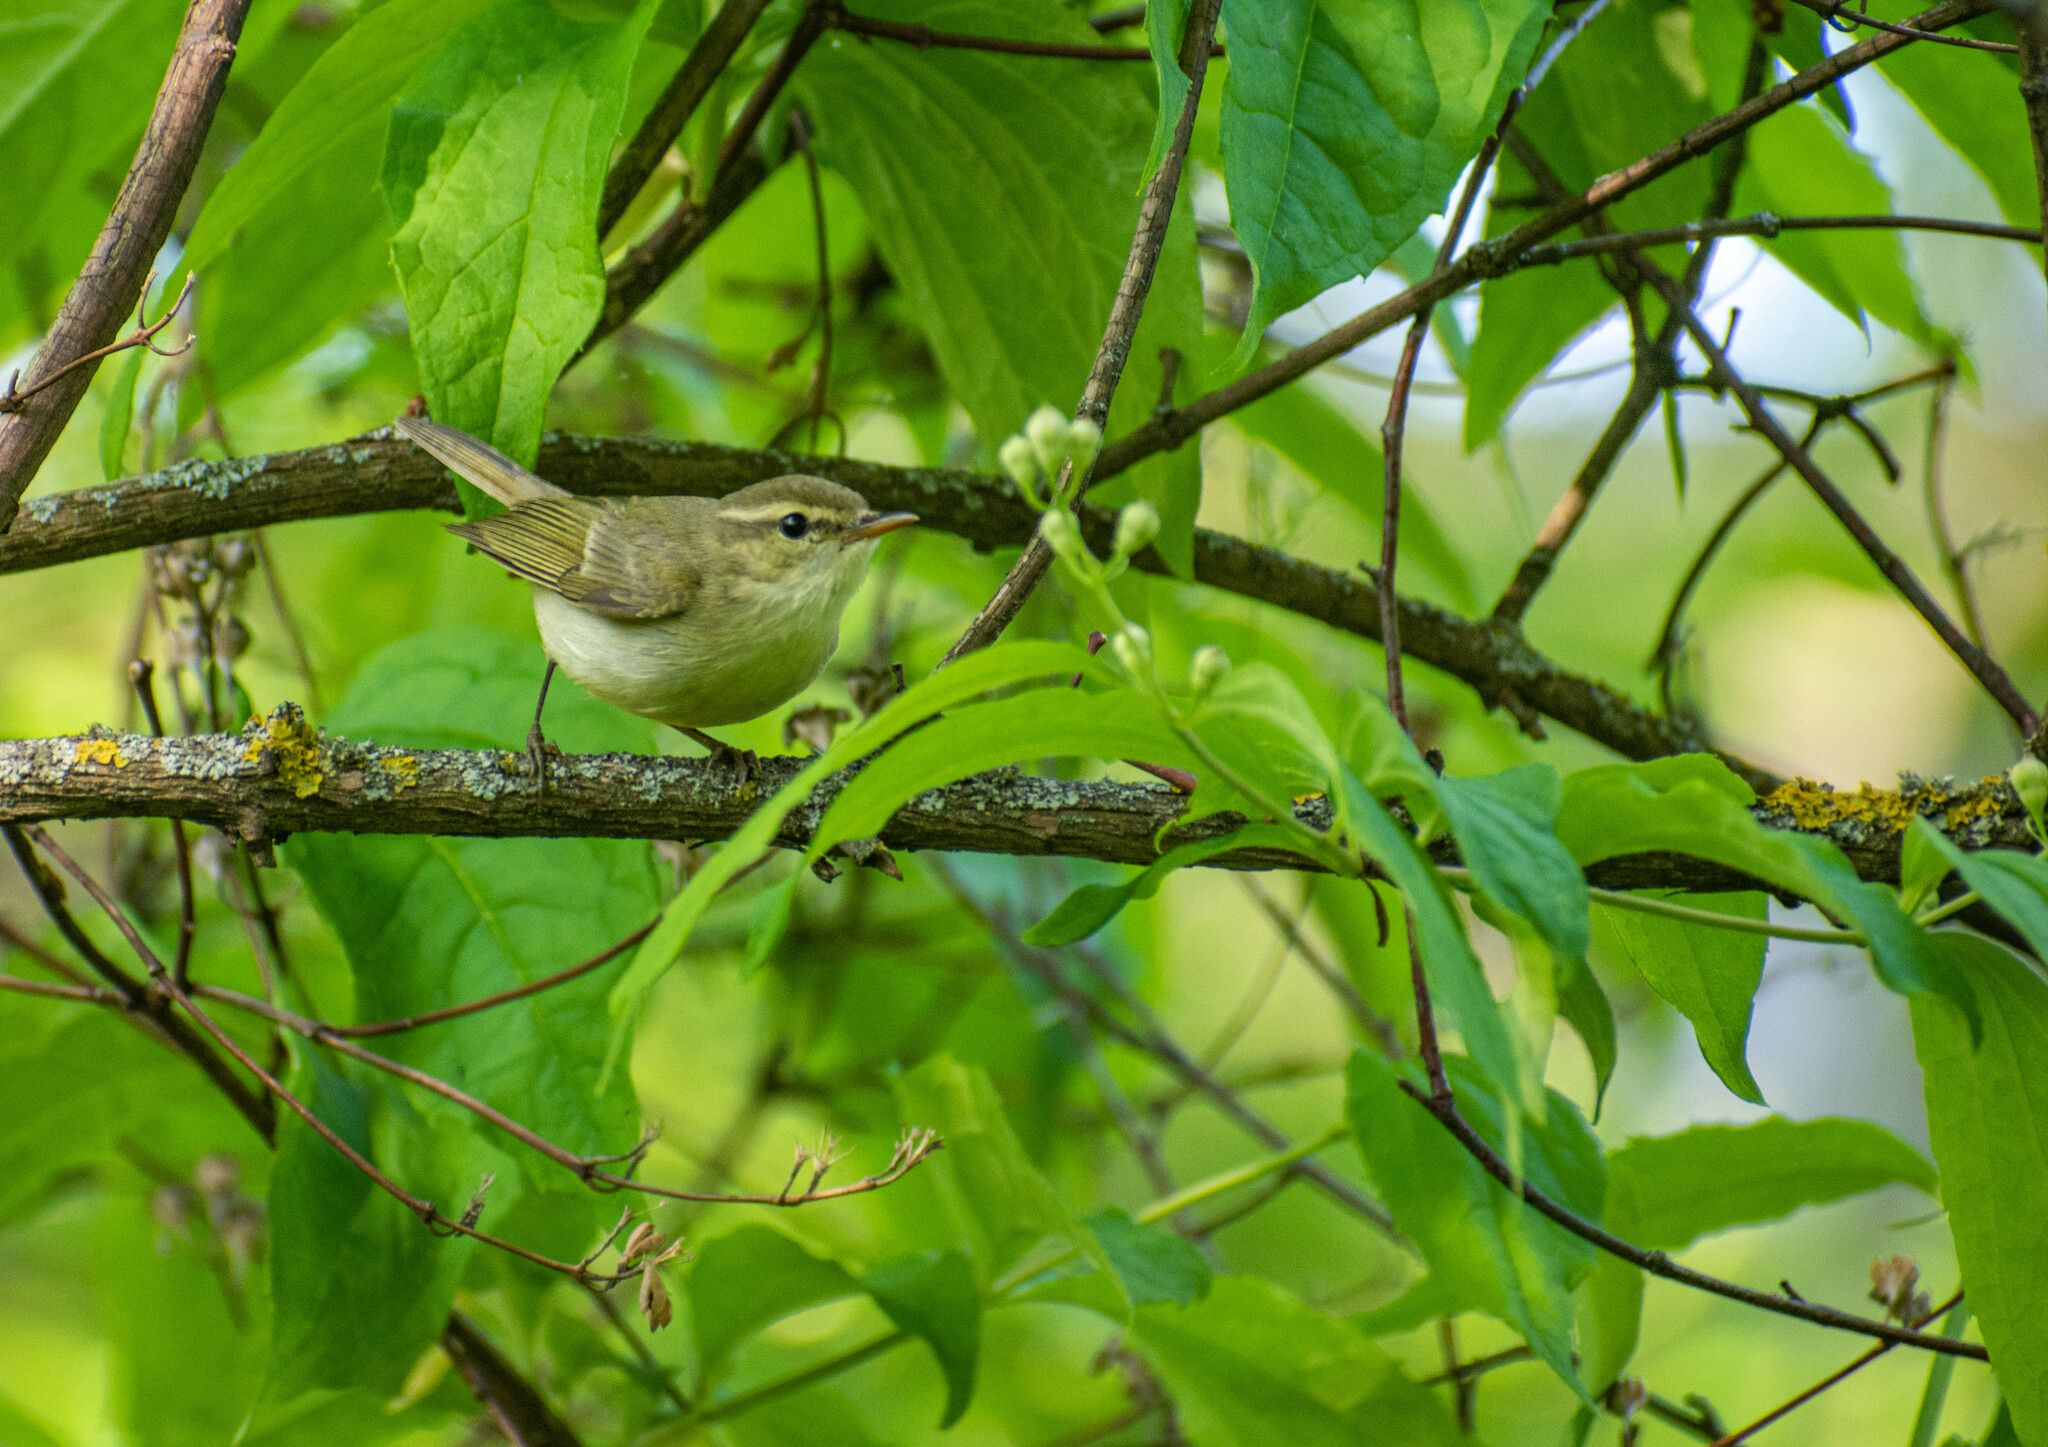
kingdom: Animalia
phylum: Chordata
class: Aves
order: Passeriformes
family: Phylloscopidae
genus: Phylloscopus
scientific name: Phylloscopus trochiloides
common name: Greenish warbler
